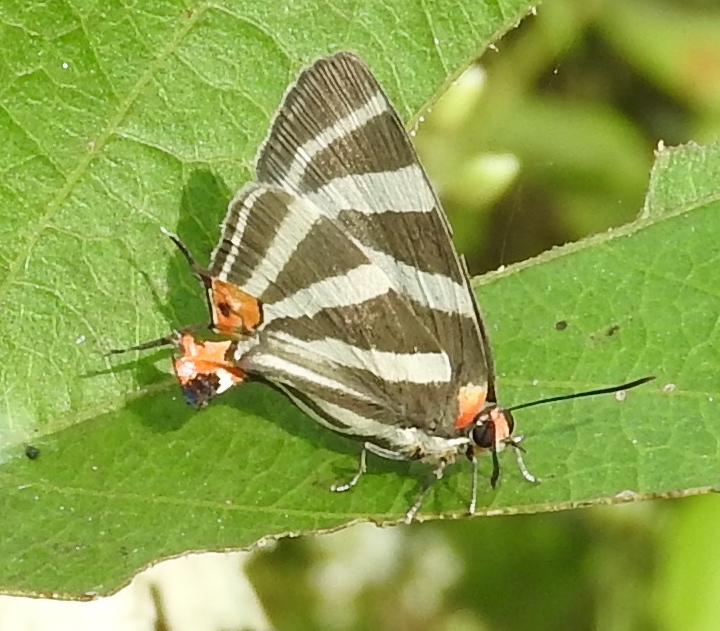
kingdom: Animalia
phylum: Arthropoda
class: Insecta
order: Lepidoptera
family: Lycaenidae
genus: Thecla
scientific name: Thecla bathildis
